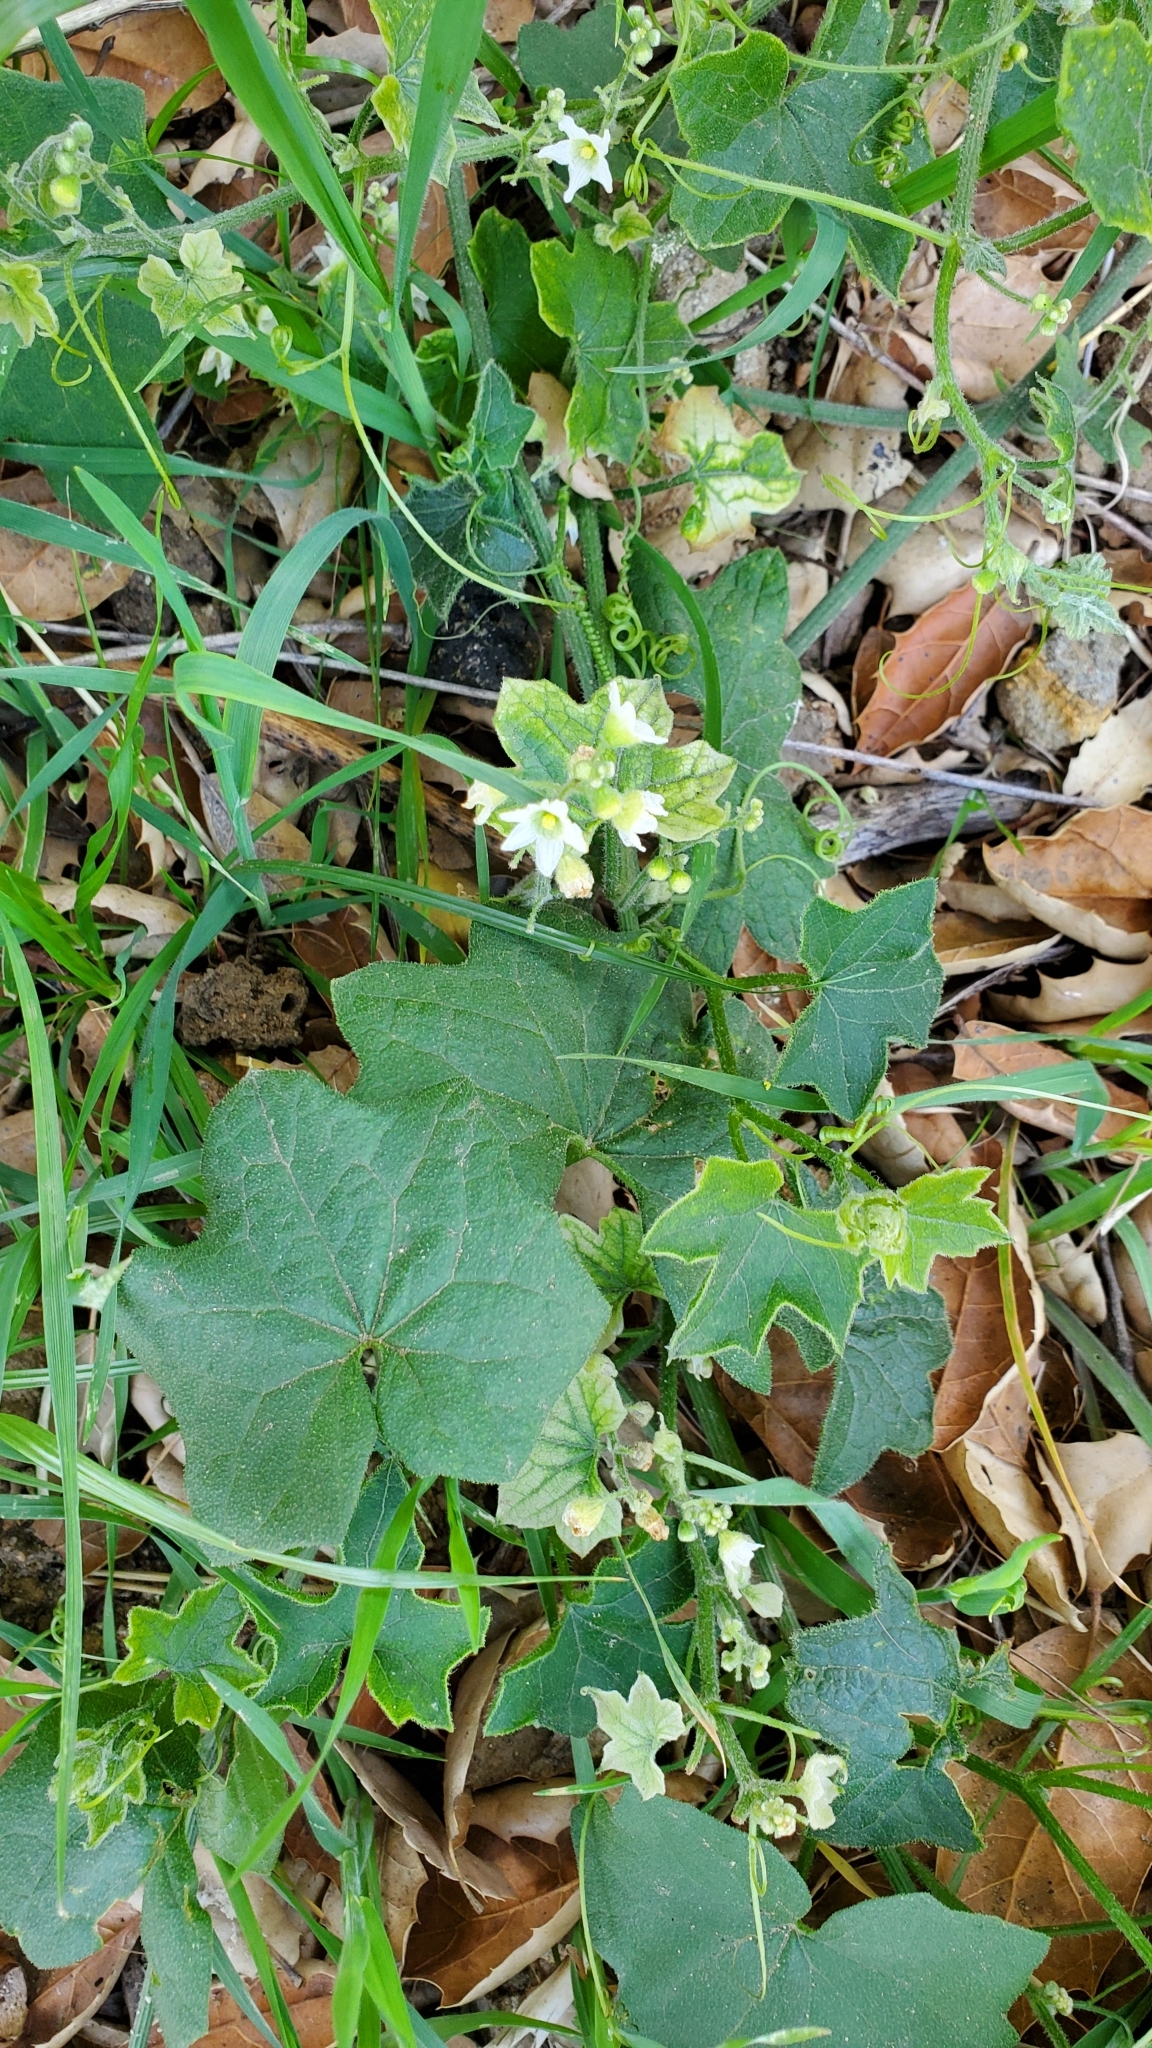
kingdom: Plantae
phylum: Tracheophyta
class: Magnoliopsida
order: Cucurbitales
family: Cucurbitaceae
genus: Marah
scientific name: Marah macrocarpa
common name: Cucamonga manroot
